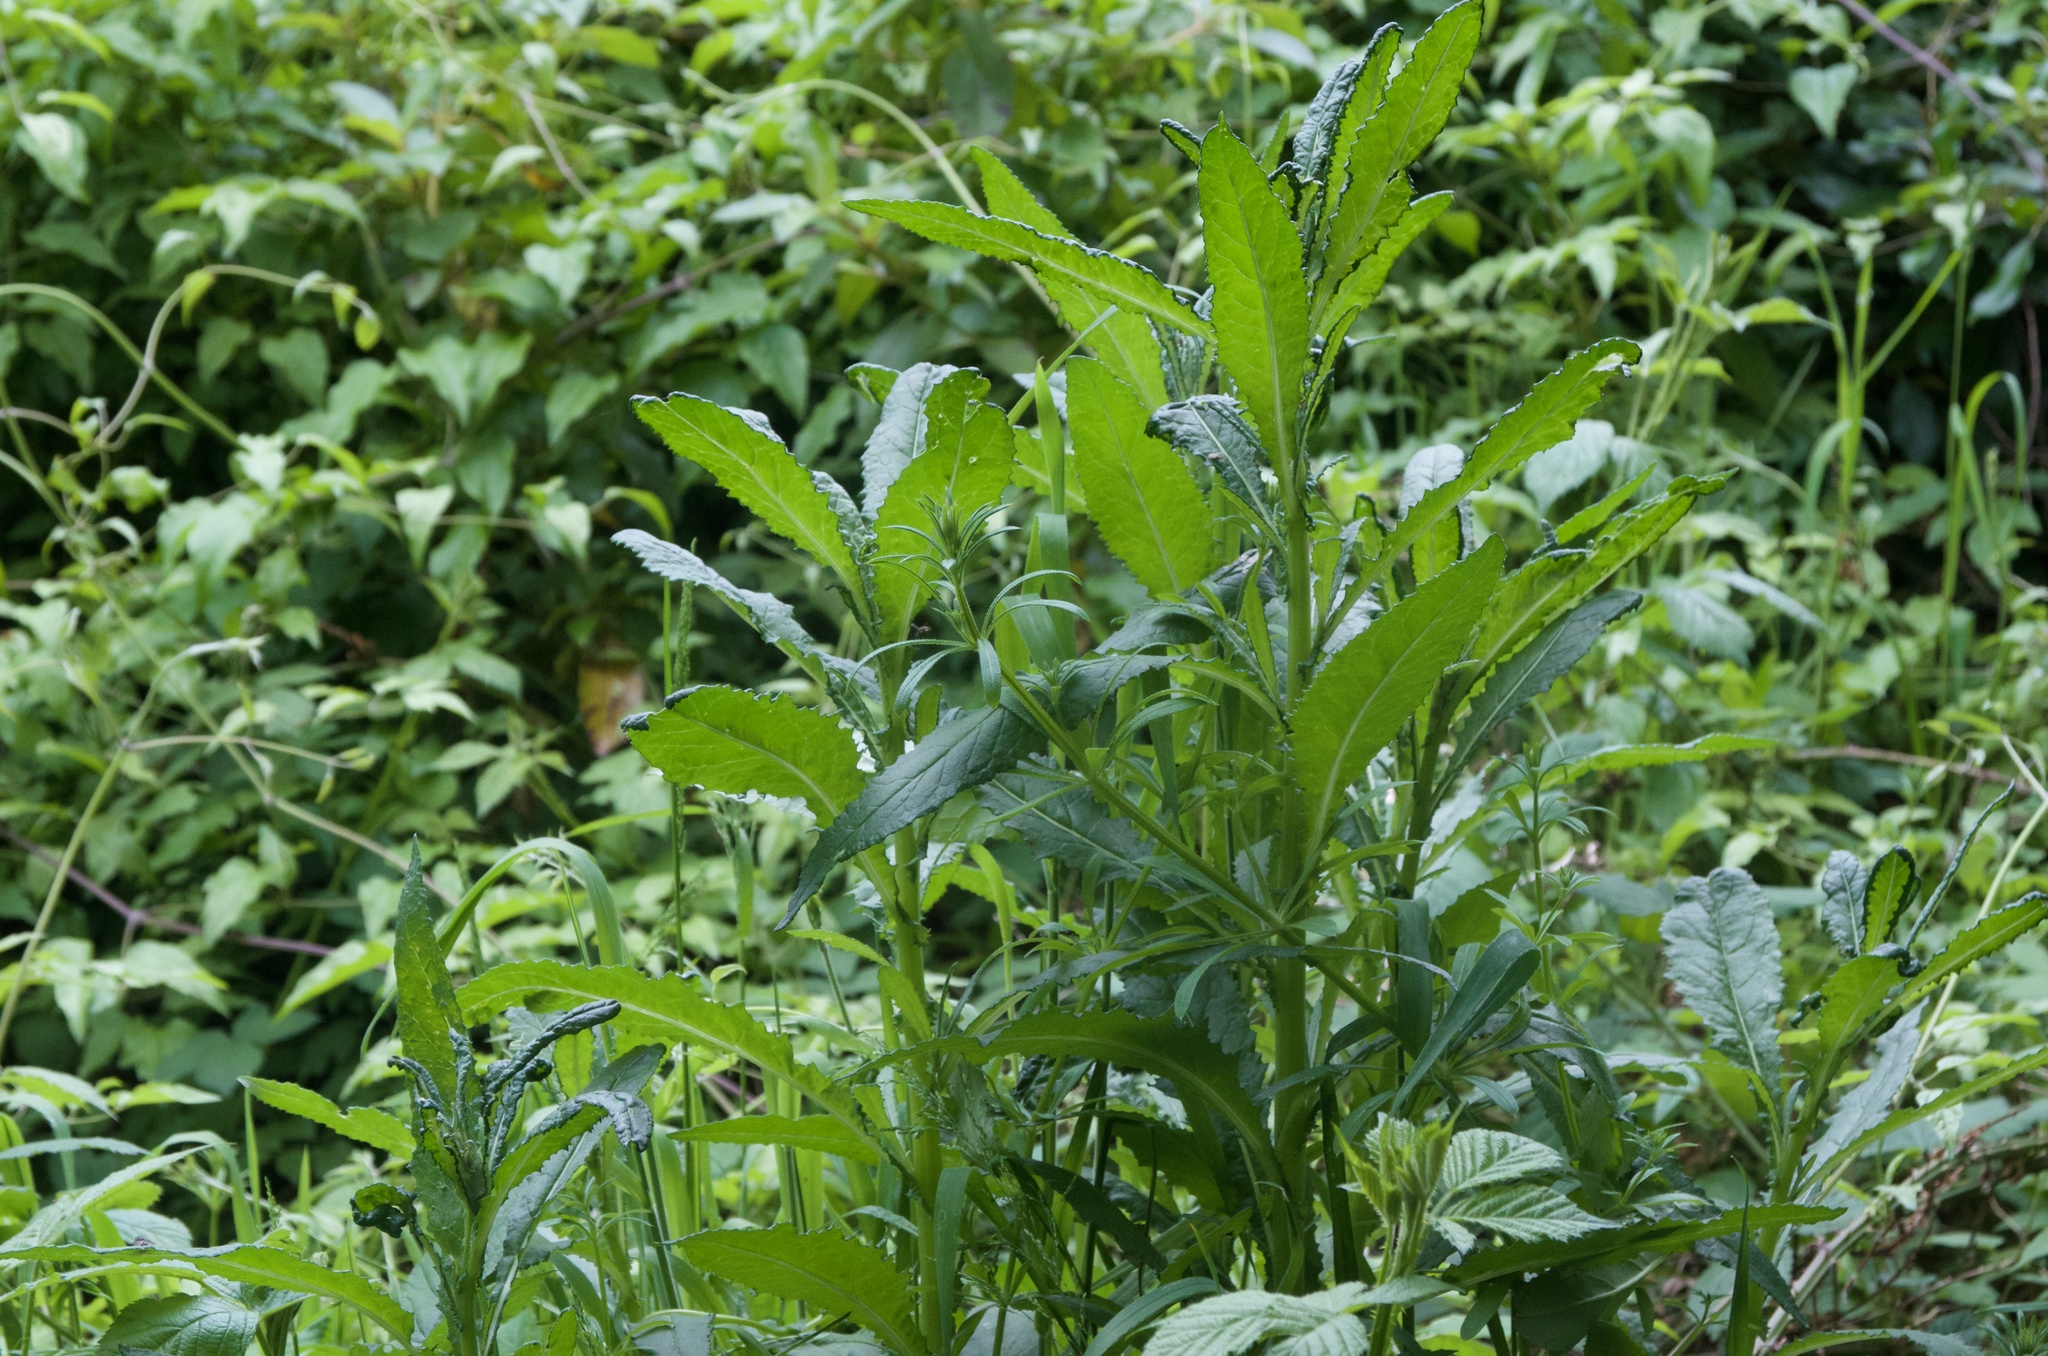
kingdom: Plantae
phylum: Tracheophyta
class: Magnoliopsida
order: Asterales
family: Asteraceae
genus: Senecio
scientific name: Senecio minimus
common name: Toothed fireweed
